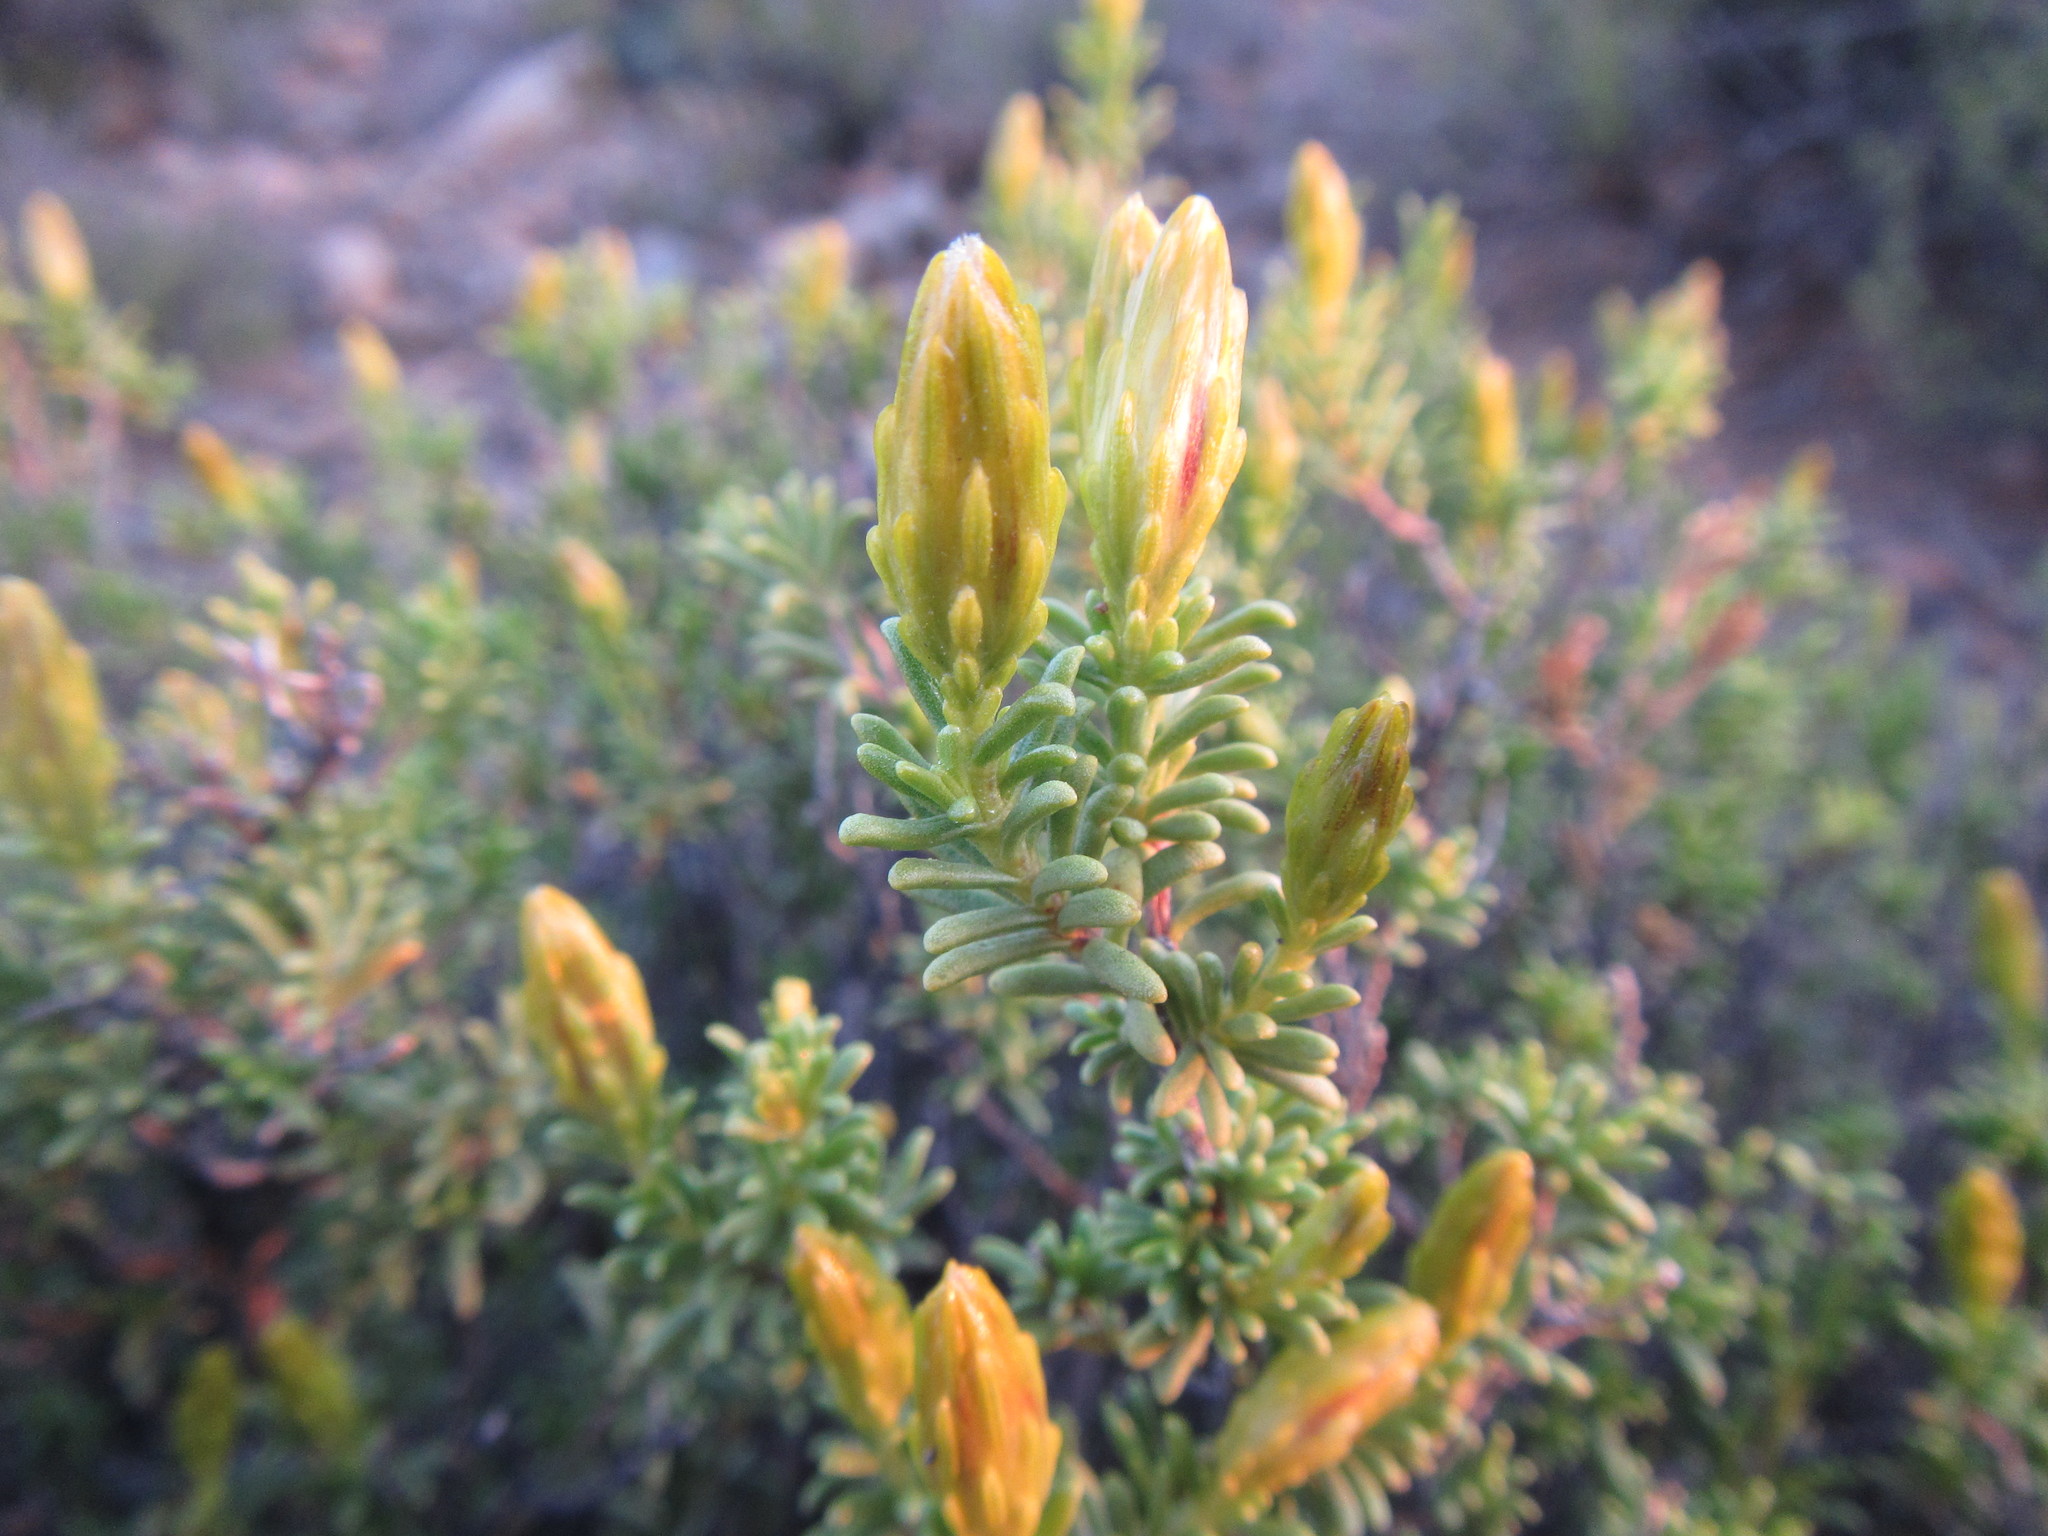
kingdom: Plantae
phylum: Tracheophyta
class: Magnoliopsida
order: Asterales
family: Asteraceae
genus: Pteronia
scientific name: Pteronia empetrifolia
